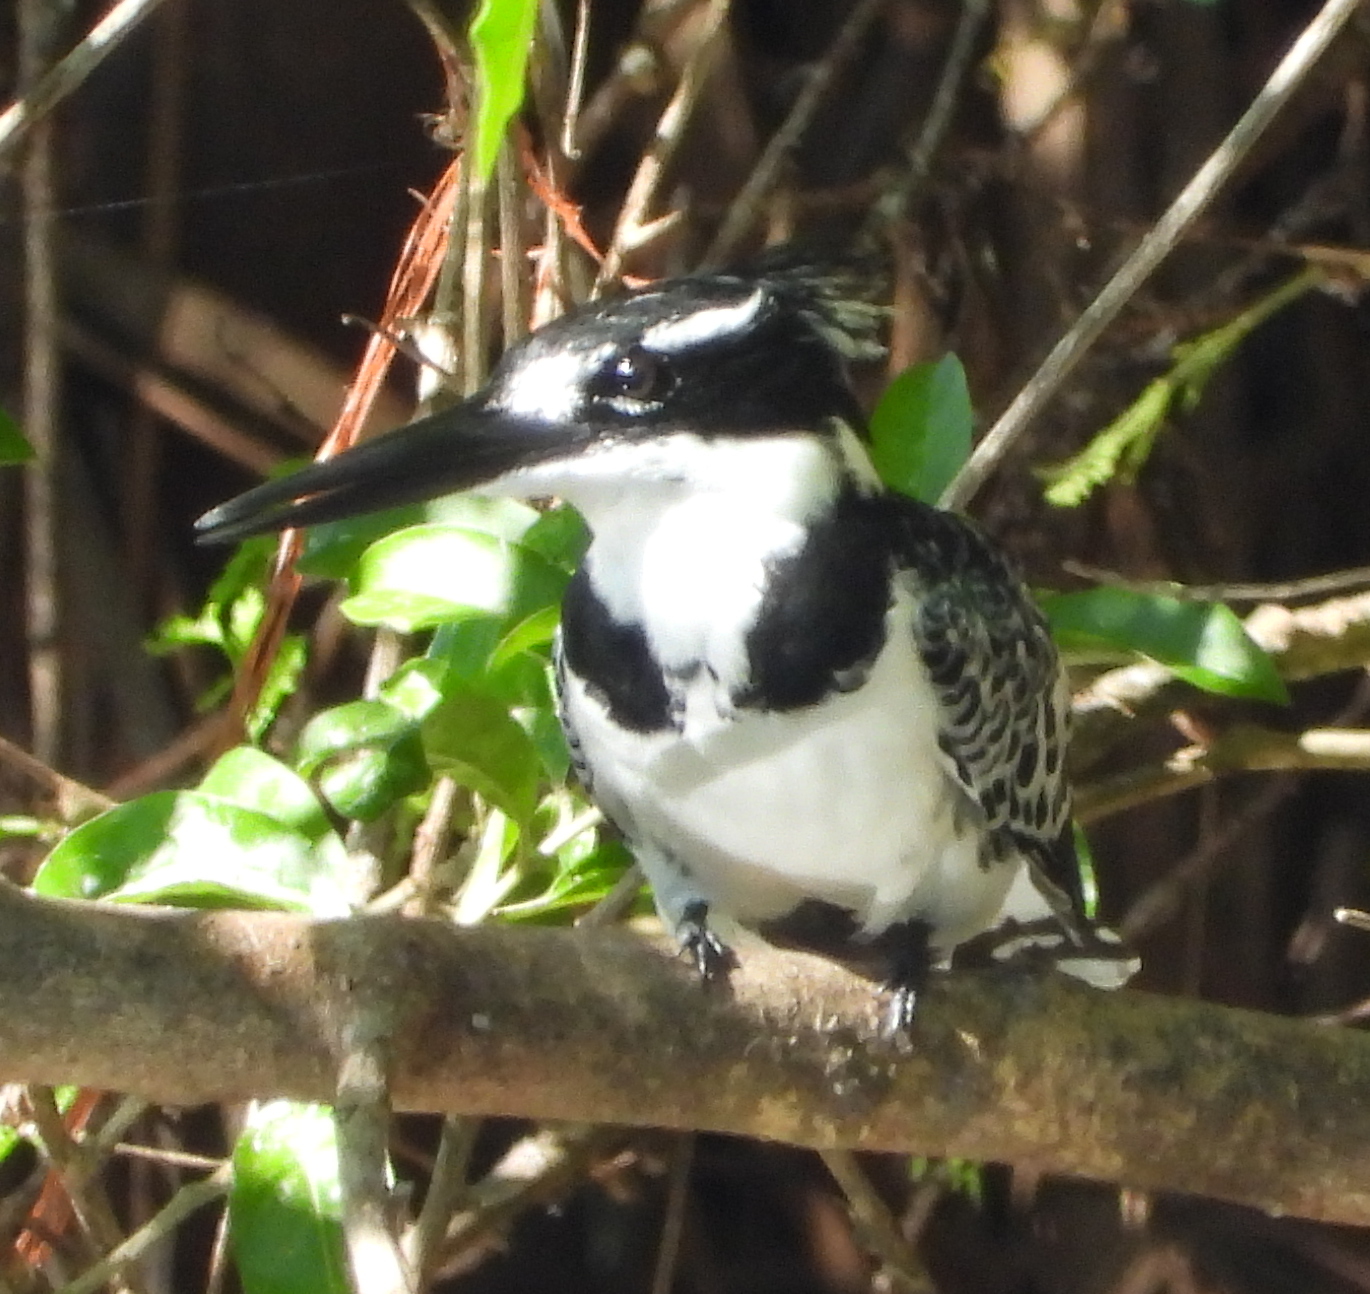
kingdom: Animalia
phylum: Chordata
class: Aves
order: Coraciiformes
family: Alcedinidae
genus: Ceryle
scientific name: Ceryle rudis
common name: Pied kingfisher
